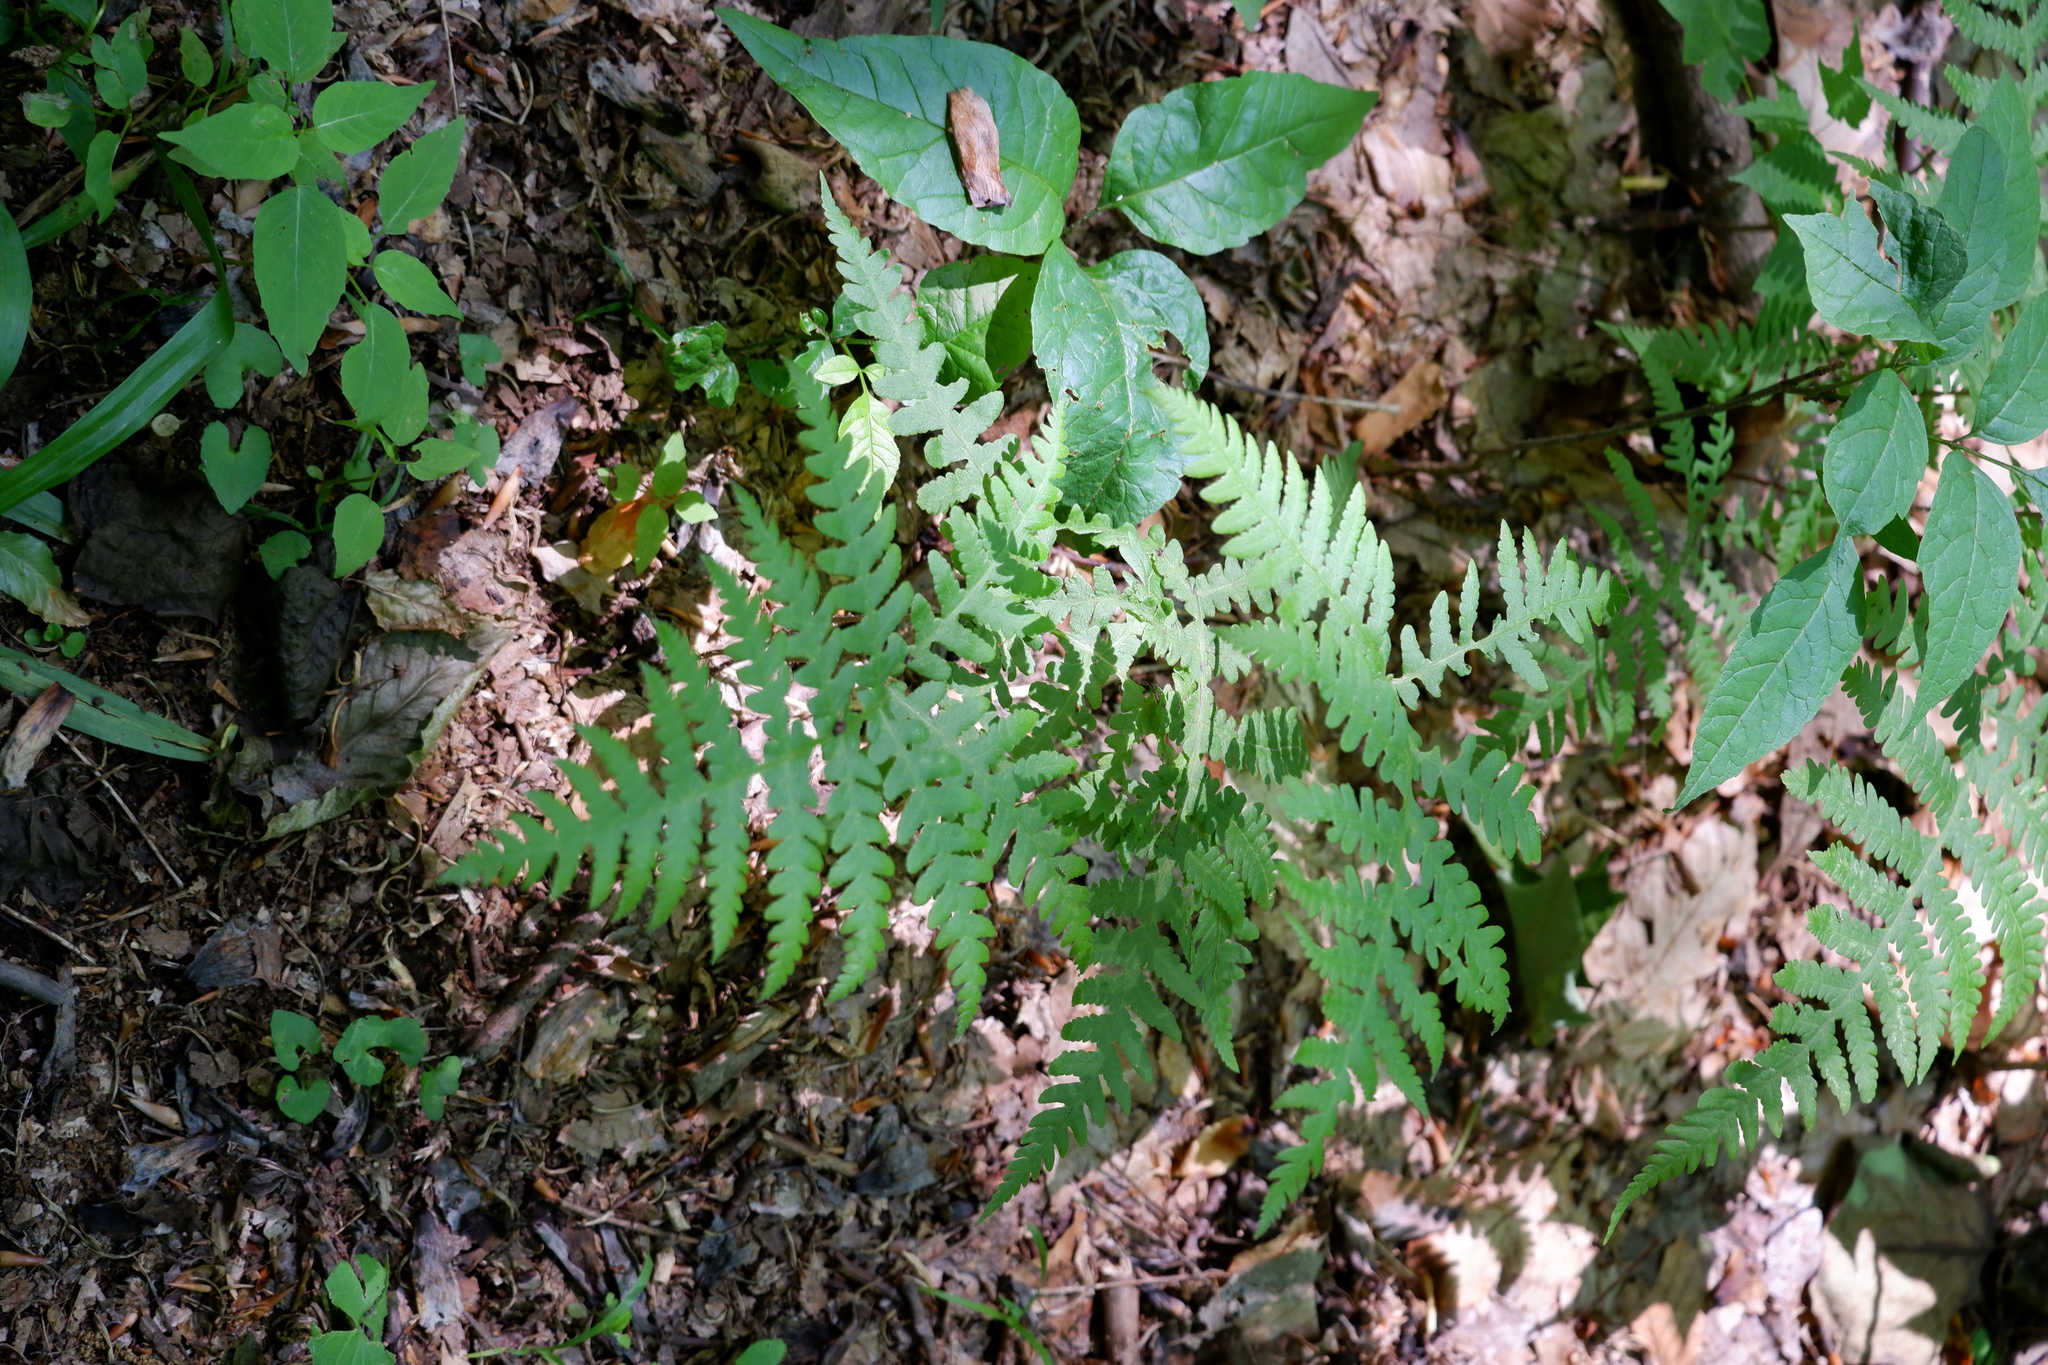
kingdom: Plantae
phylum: Tracheophyta
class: Polypodiopsida
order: Polypodiales
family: Thelypteridaceae
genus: Phegopteris
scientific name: Phegopteris hexagonoptera
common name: Broad beech fern
